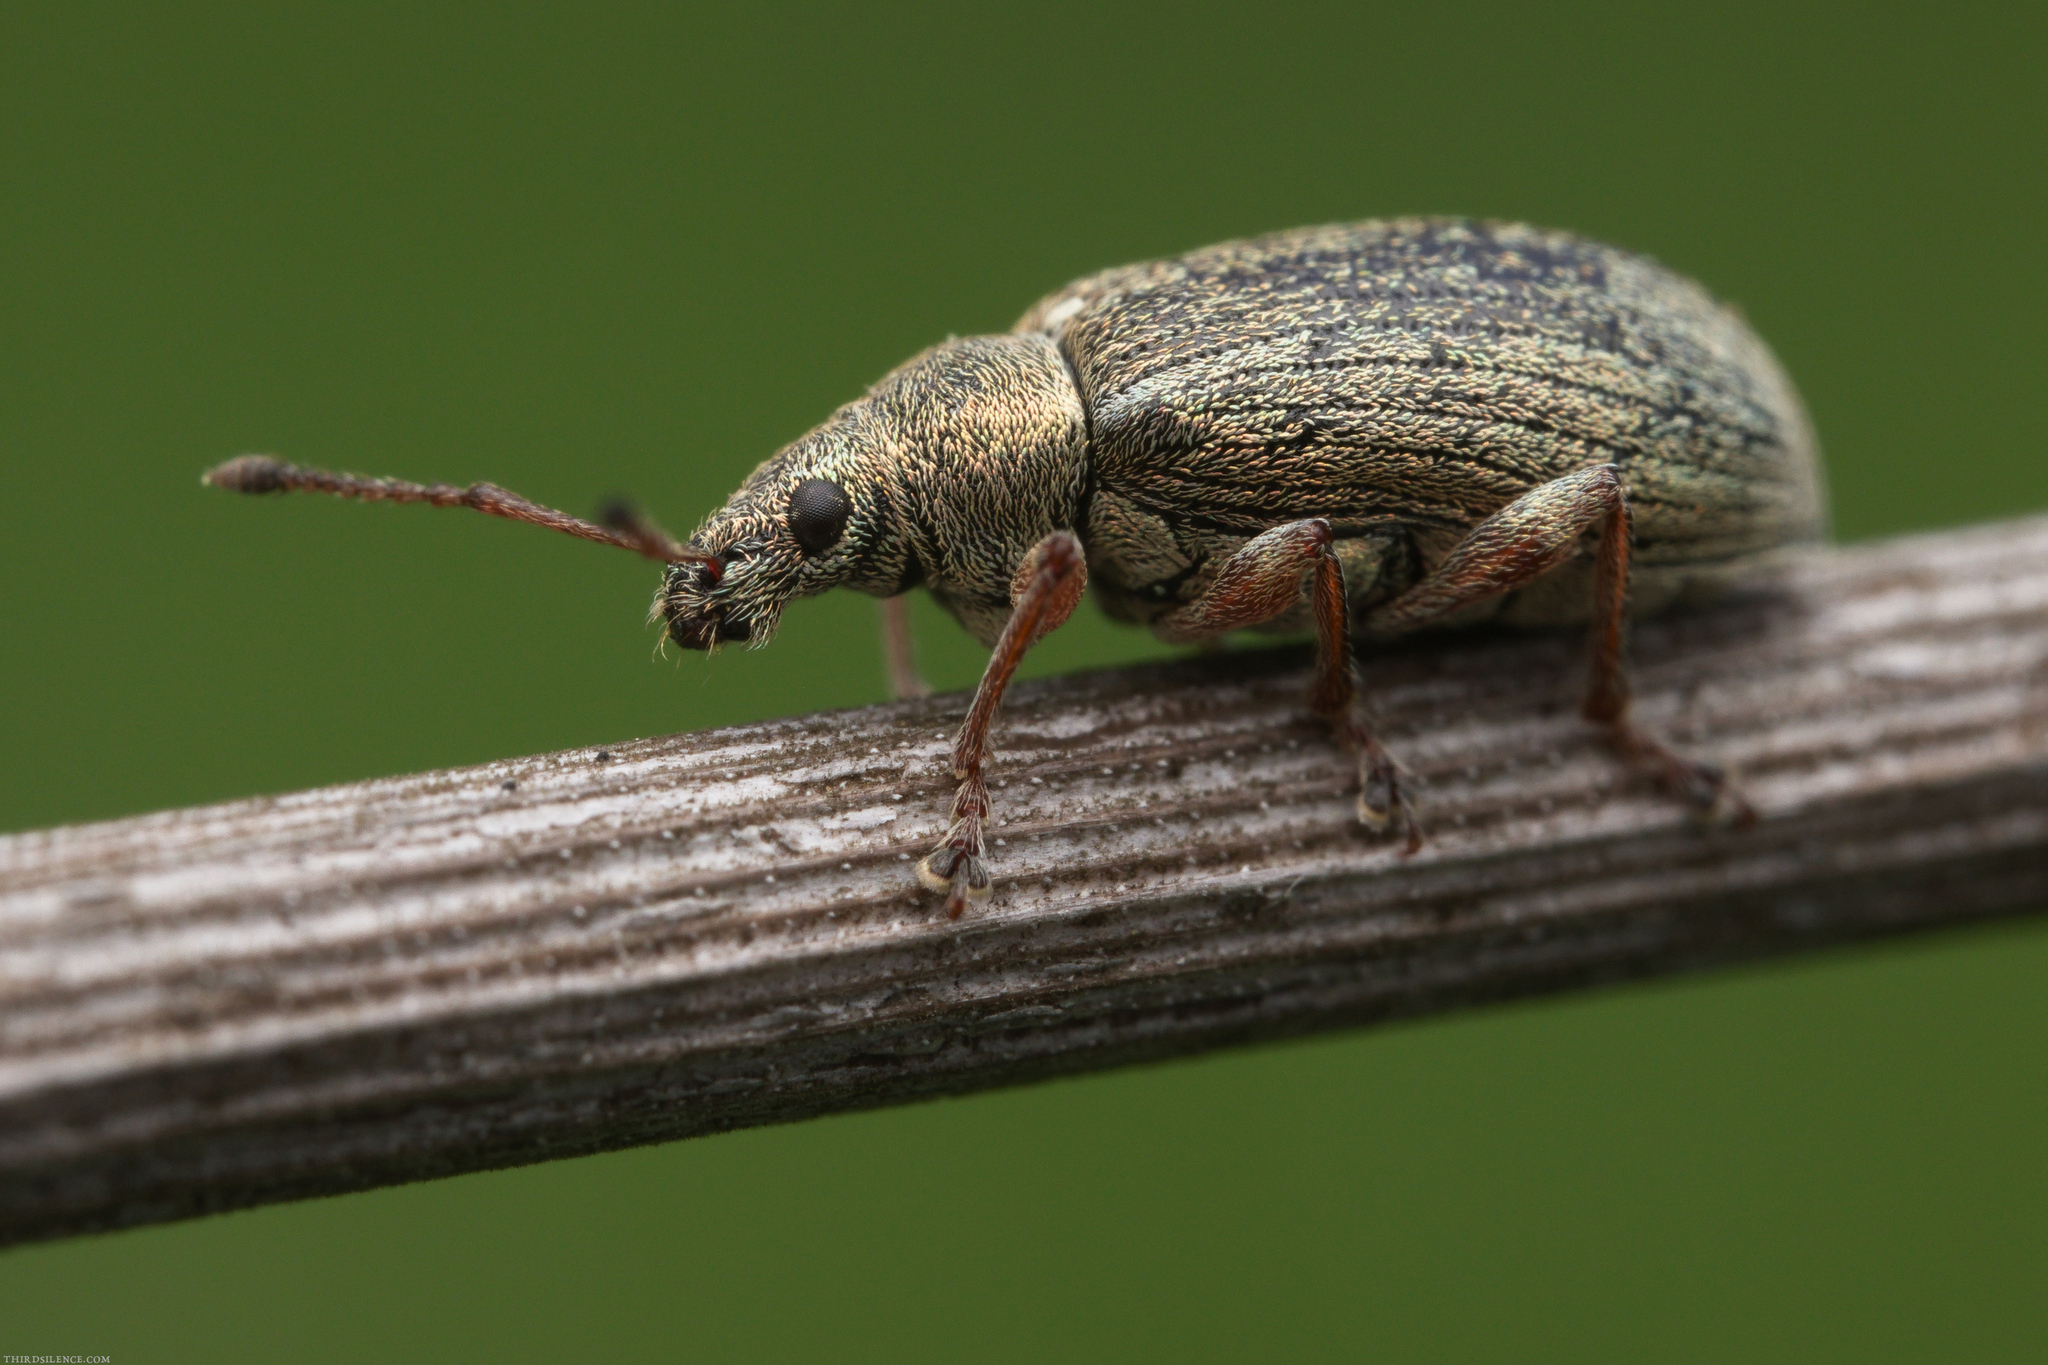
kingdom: Animalia
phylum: Arthropoda
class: Insecta
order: Coleoptera
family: Curculionidae
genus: Phyllobius
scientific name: Phyllobius pyri
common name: Common leaf weevil
